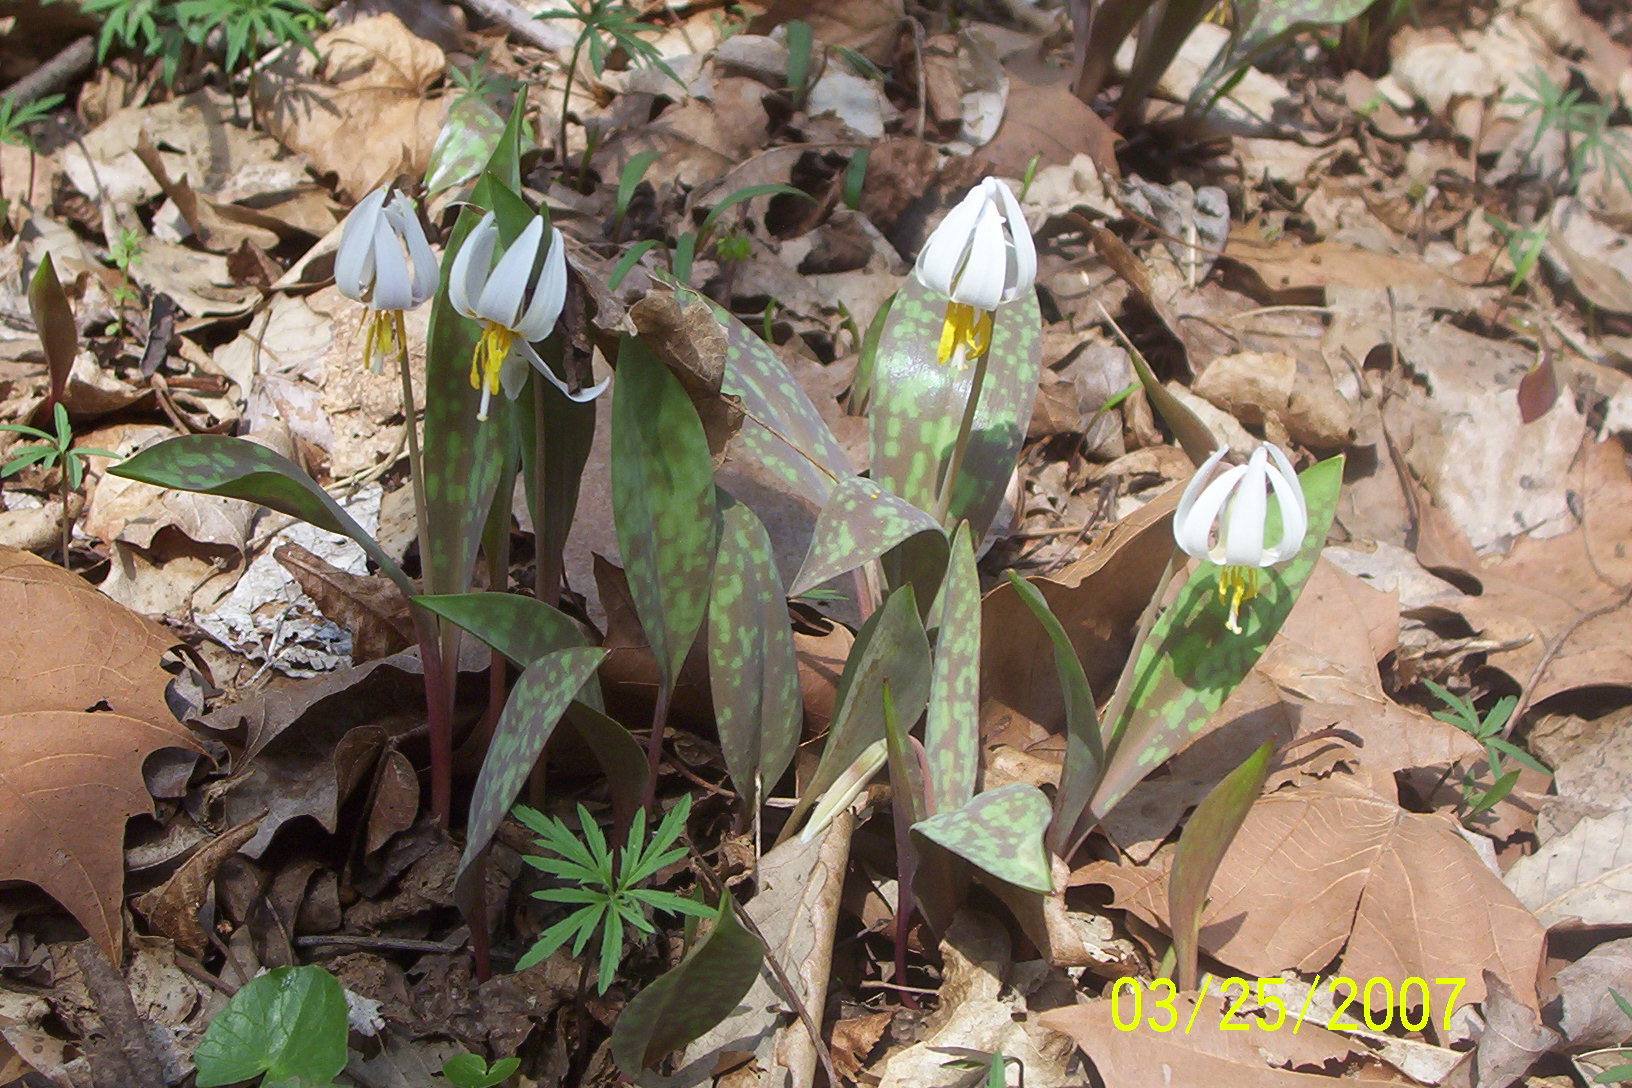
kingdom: Plantae
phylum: Tracheophyta
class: Liliopsida
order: Liliales
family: Liliaceae
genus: Erythronium
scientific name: Erythronium albidum
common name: White trout-lily
